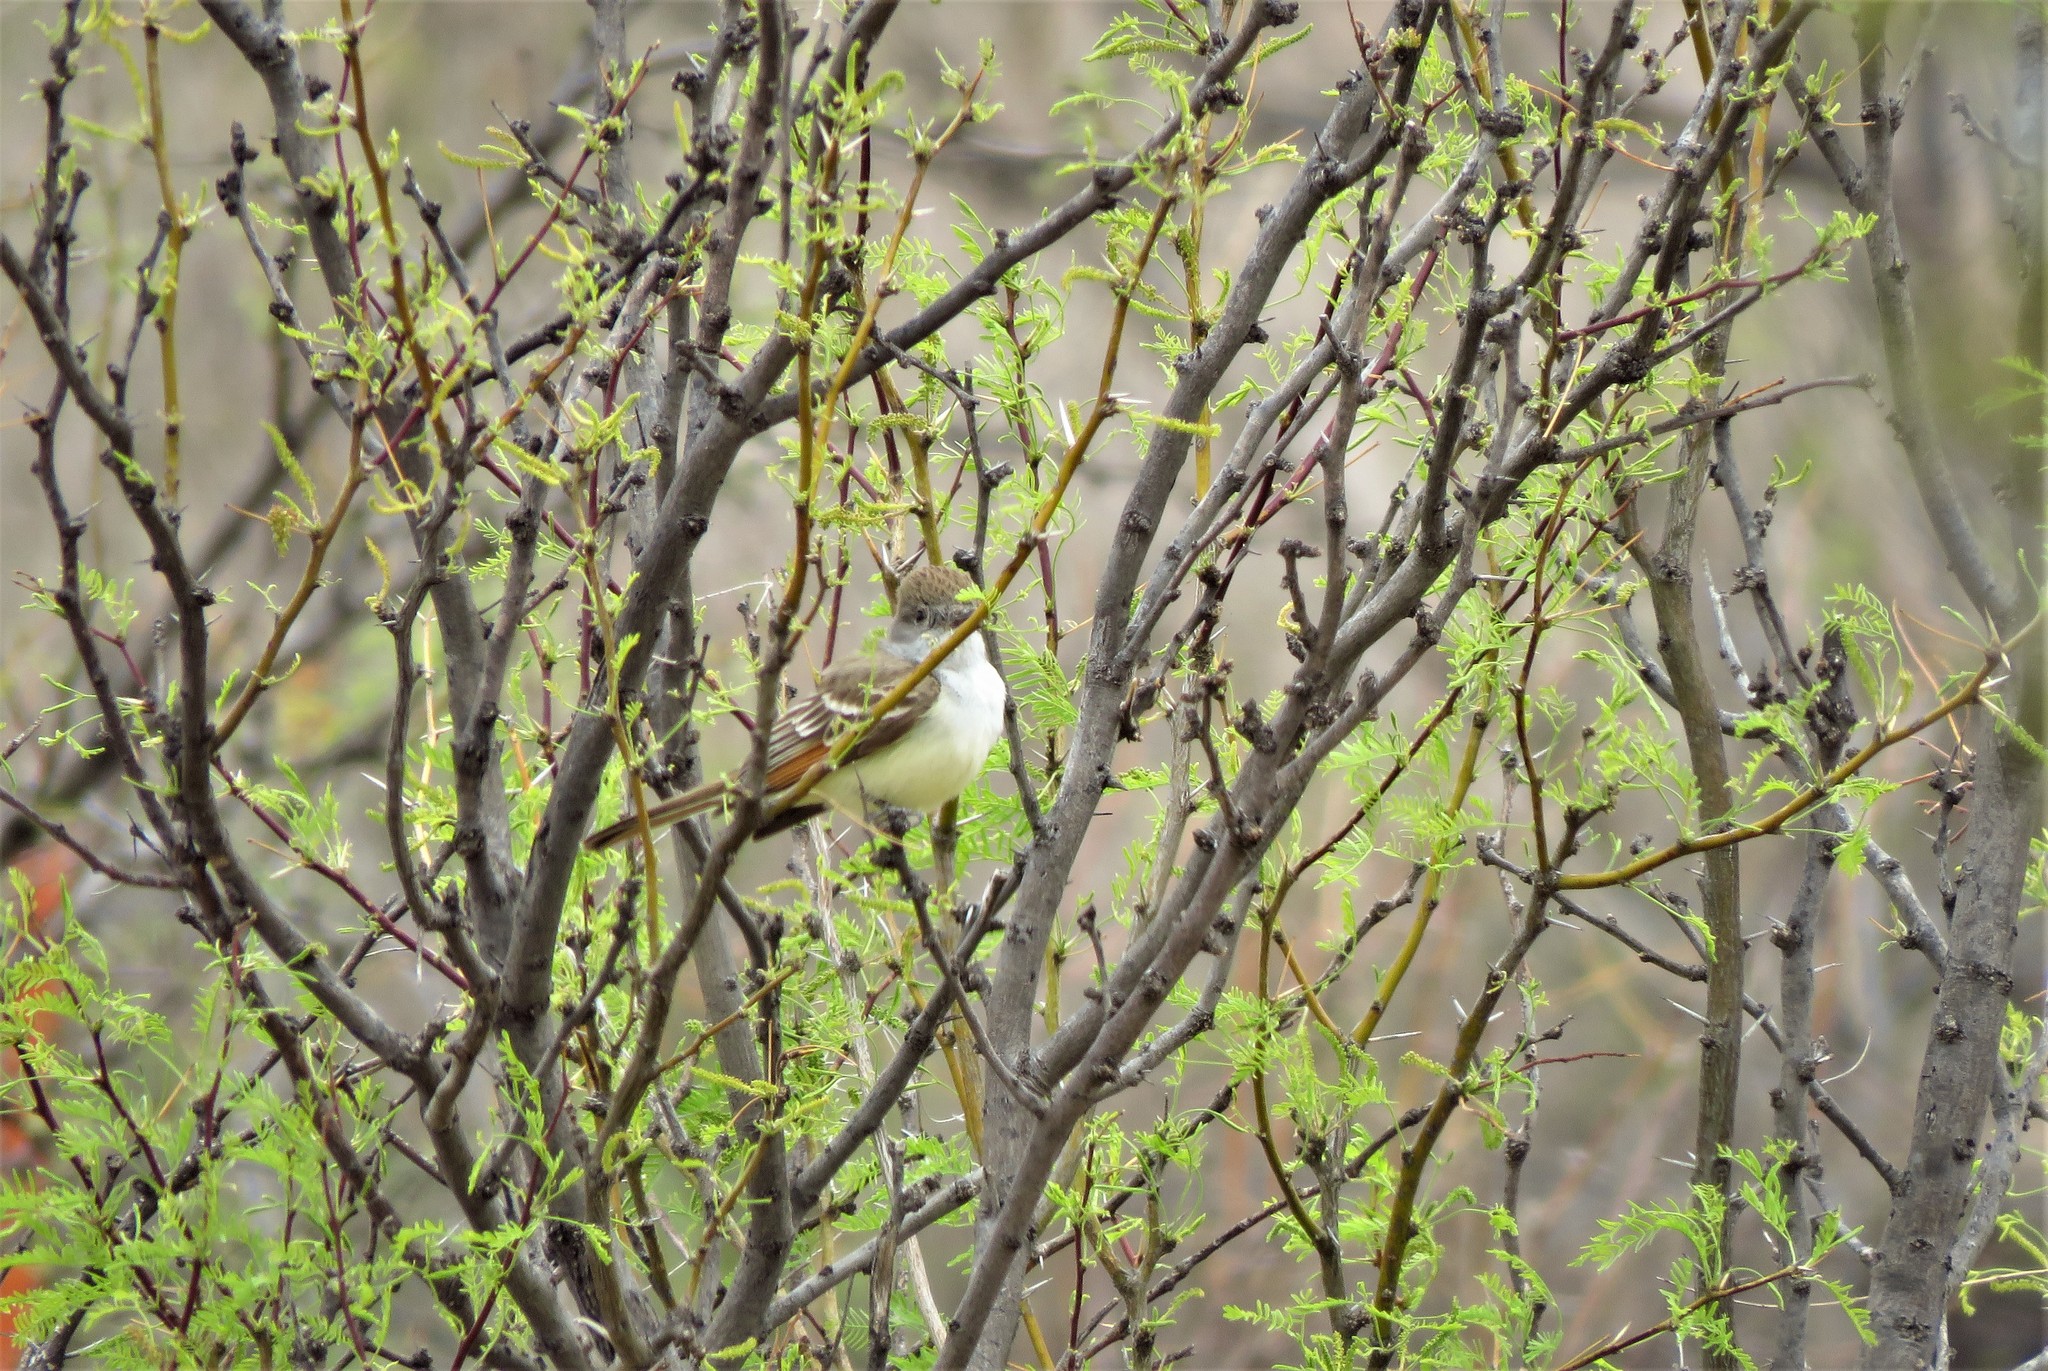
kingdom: Animalia
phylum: Chordata
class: Aves
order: Passeriformes
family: Tyrannidae
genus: Myiarchus
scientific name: Myiarchus cinerascens
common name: Ash-throated flycatcher
